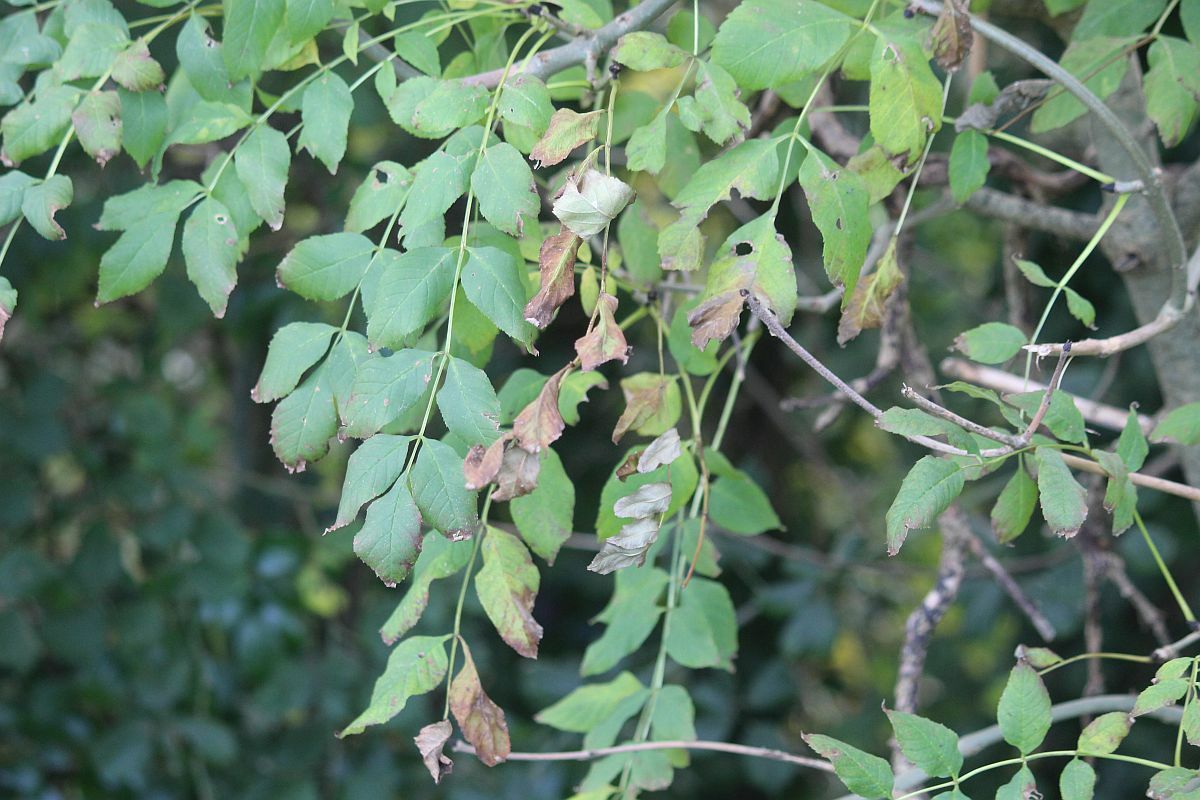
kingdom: Plantae
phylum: Tracheophyta
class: Magnoliopsida
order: Lamiales
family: Oleaceae
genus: Fraxinus
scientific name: Fraxinus excelsior
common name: European ash
